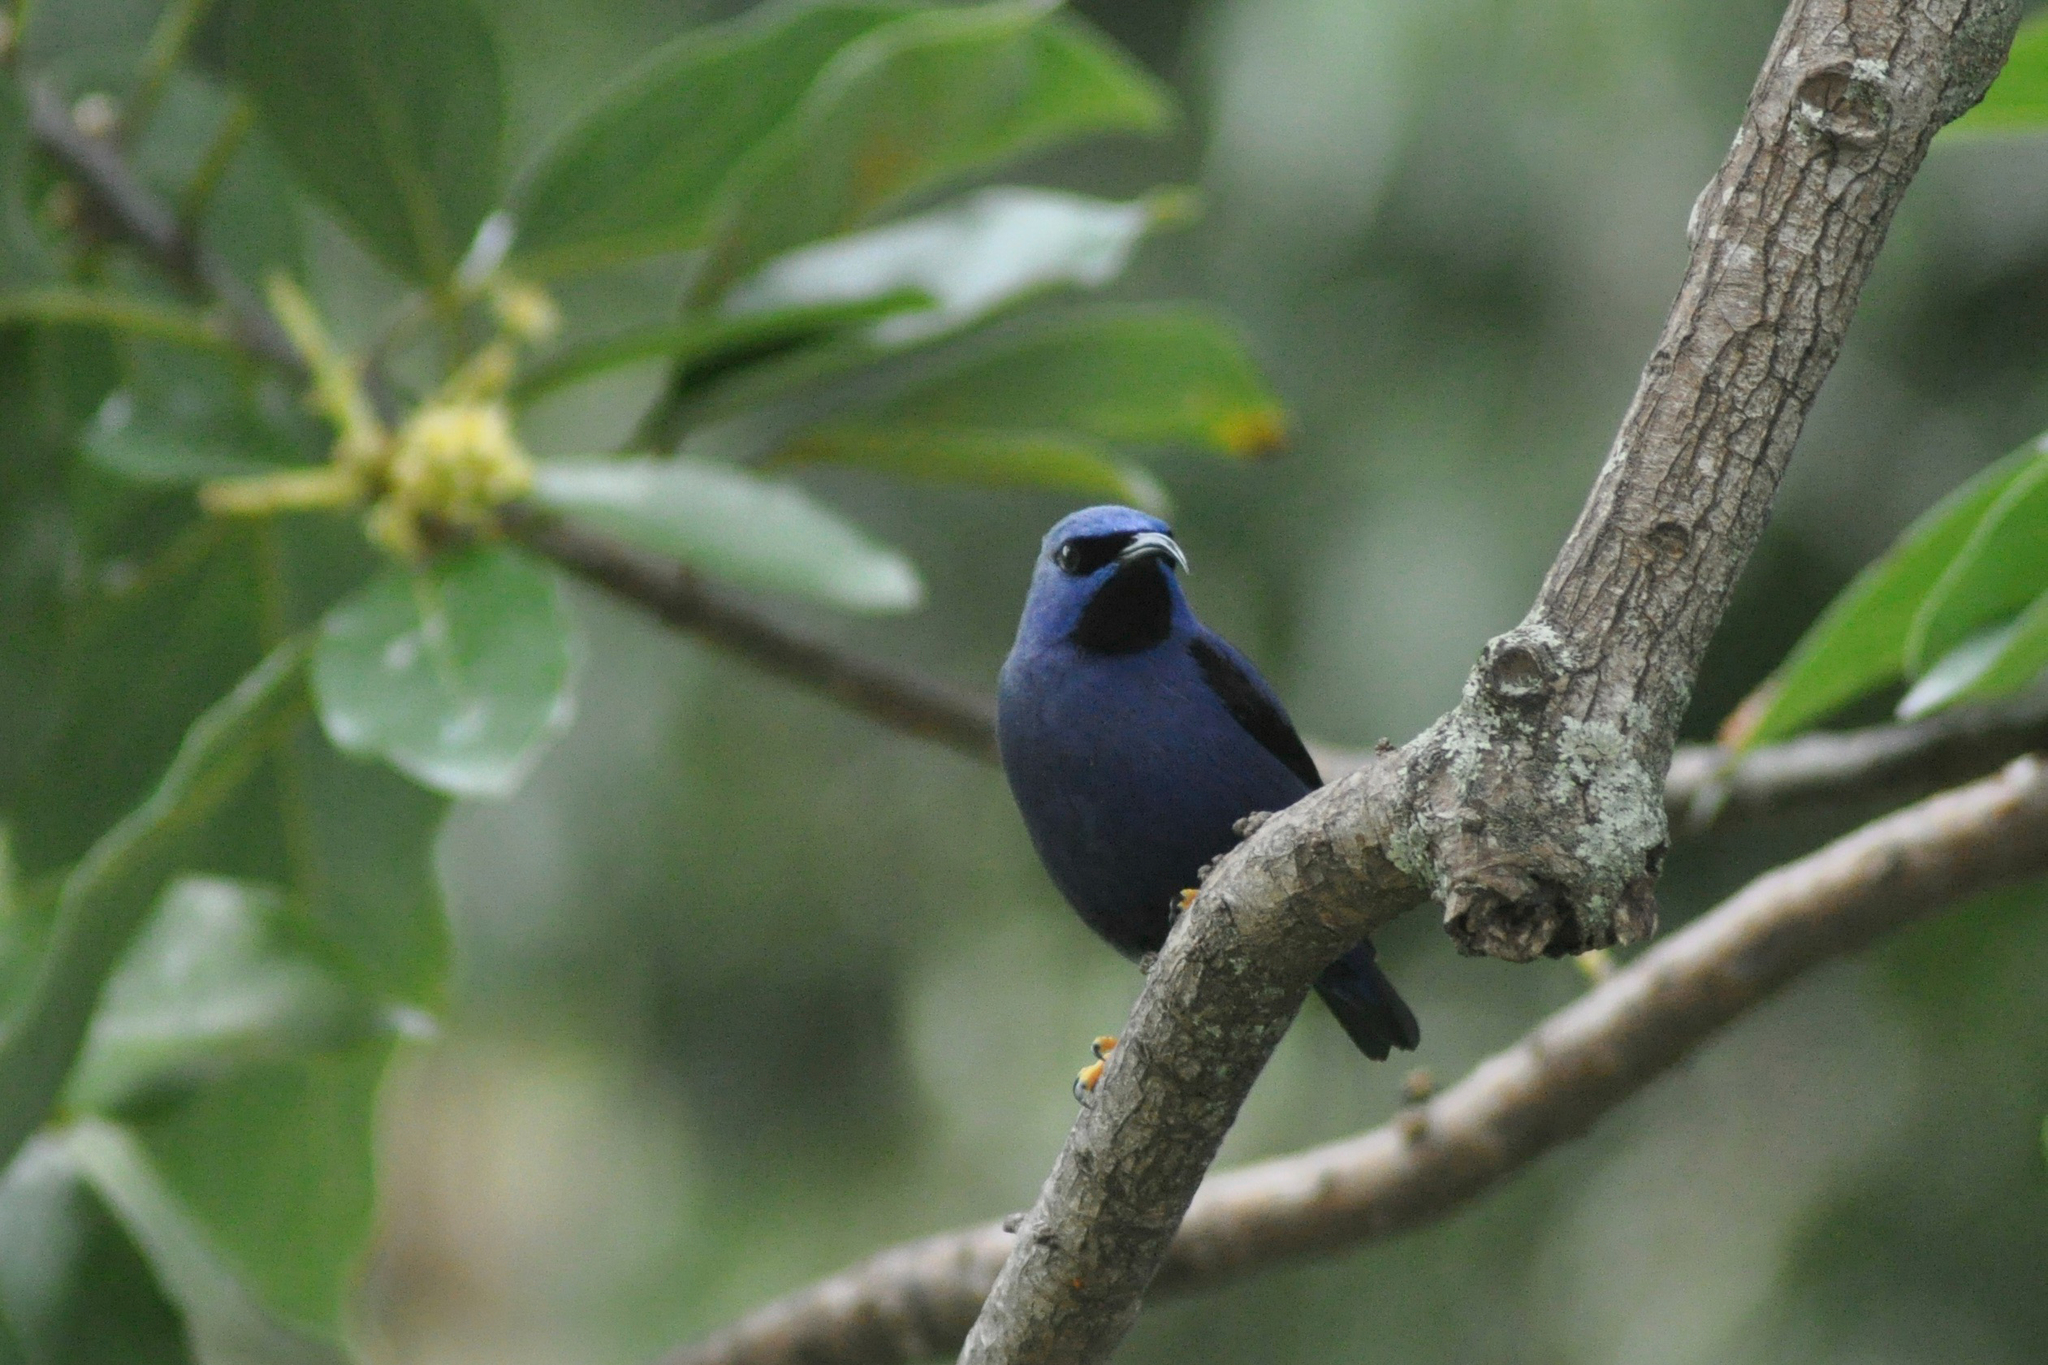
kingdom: Animalia
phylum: Chordata
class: Aves
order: Passeriformes
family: Thraupidae
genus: Cyanerpes
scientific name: Cyanerpes caeruleus
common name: Purple honeycreeper
